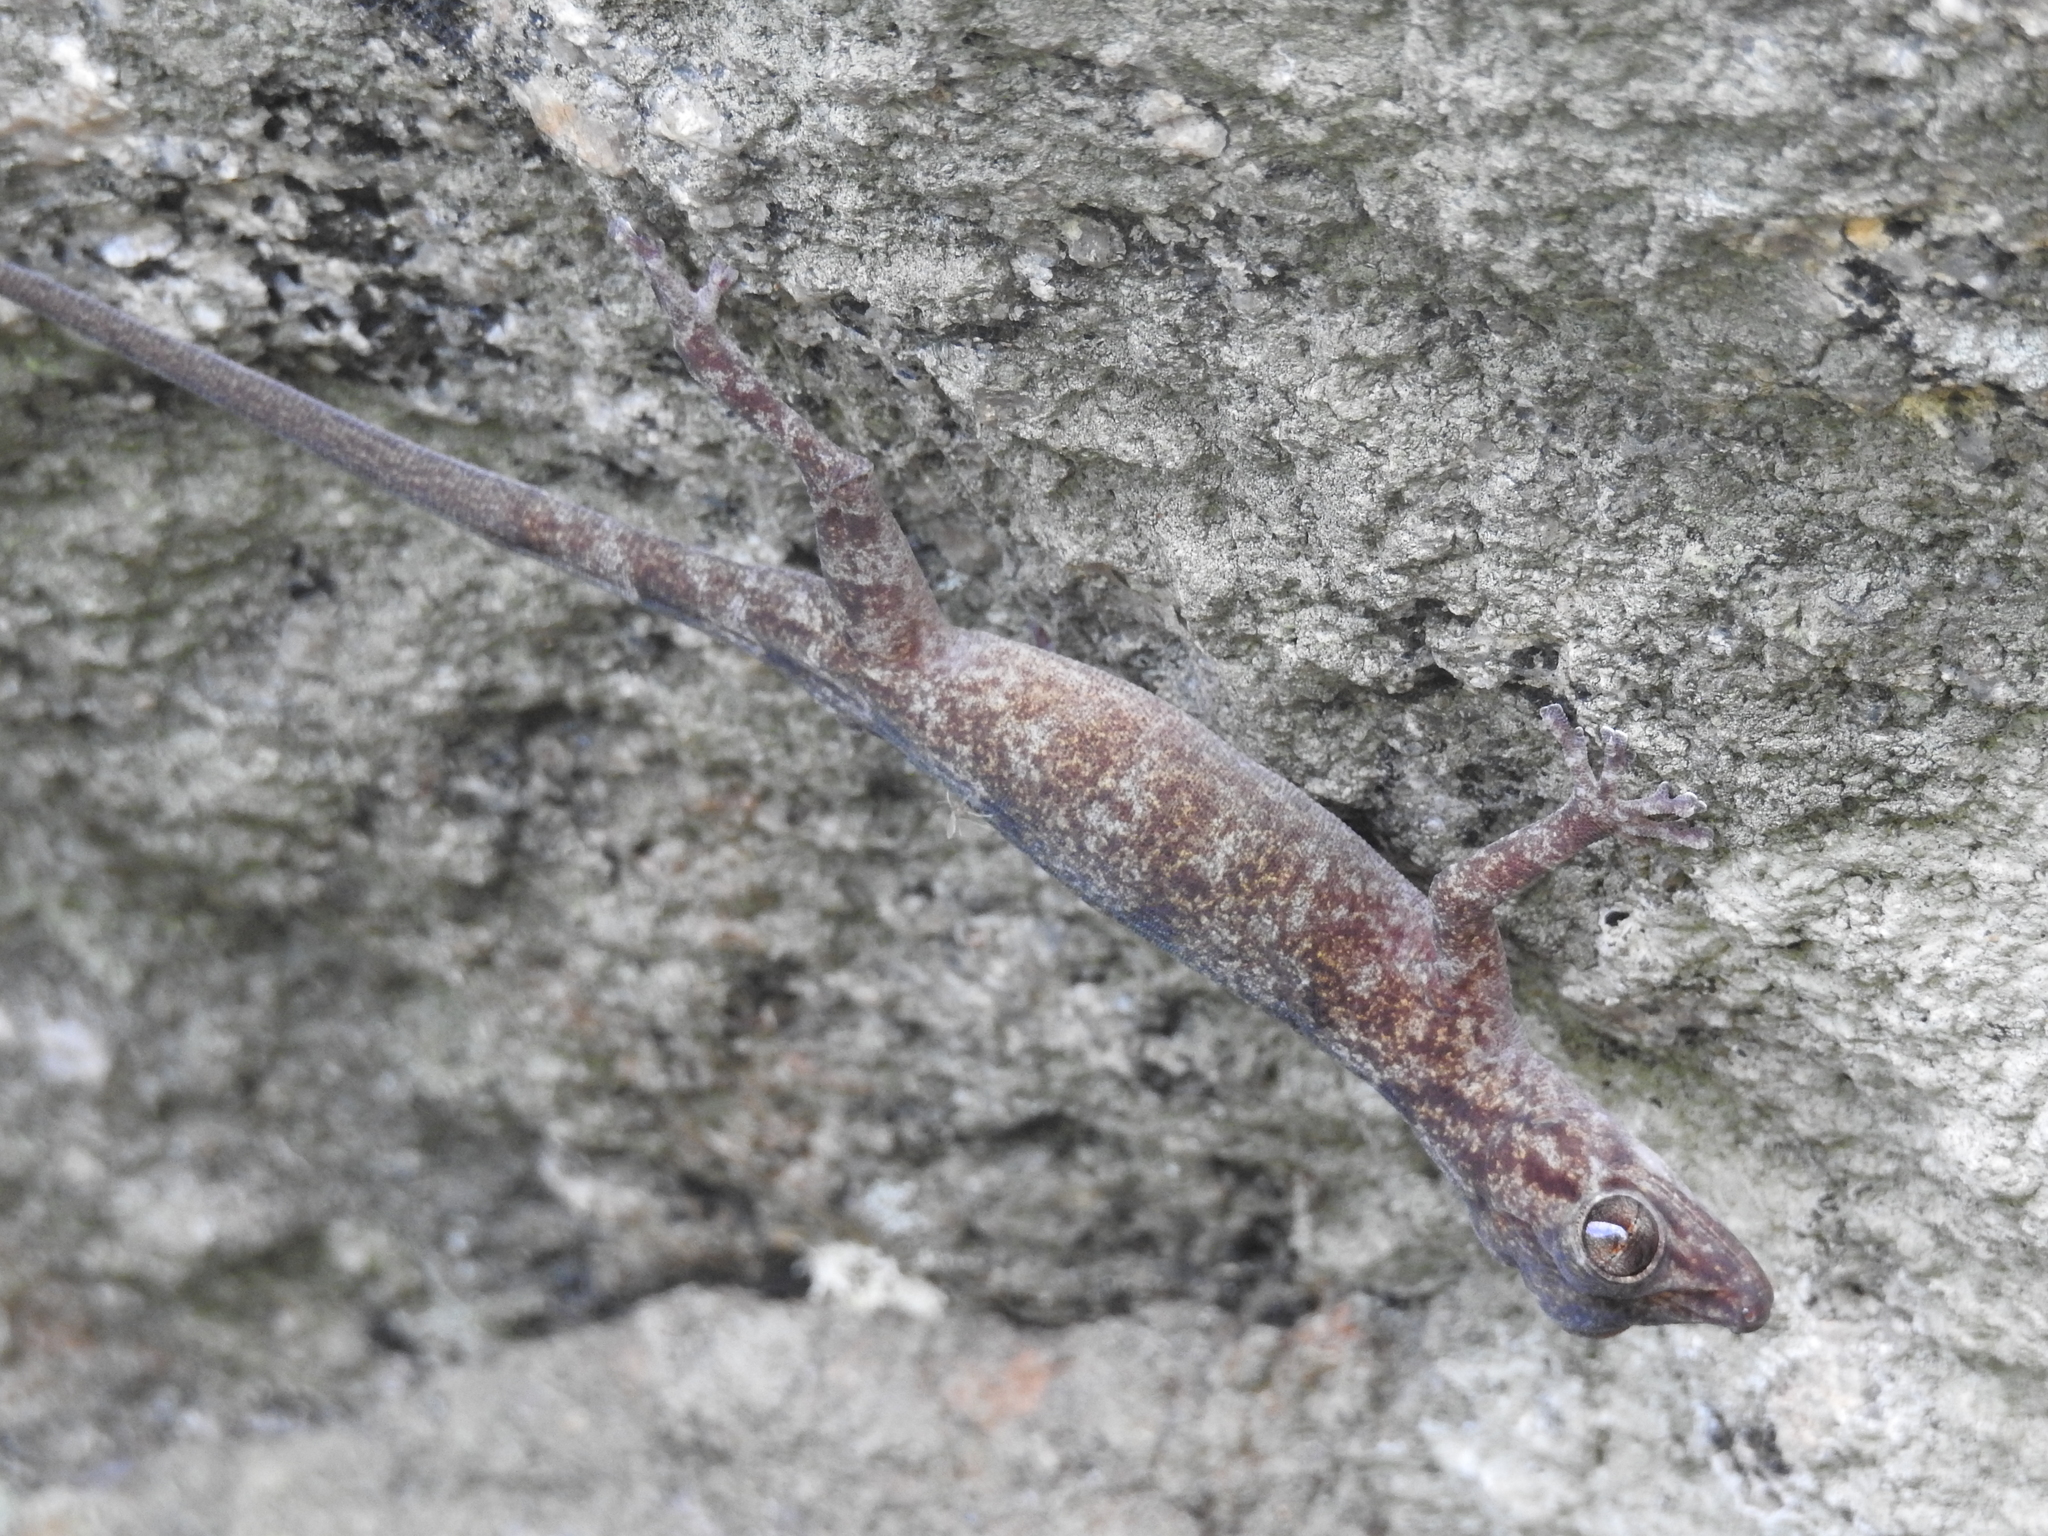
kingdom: Animalia
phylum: Chordata
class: Squamata
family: Gekkonidae
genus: Calodactylodes
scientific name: Calodactylodes aureus
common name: Indian golden gecko
